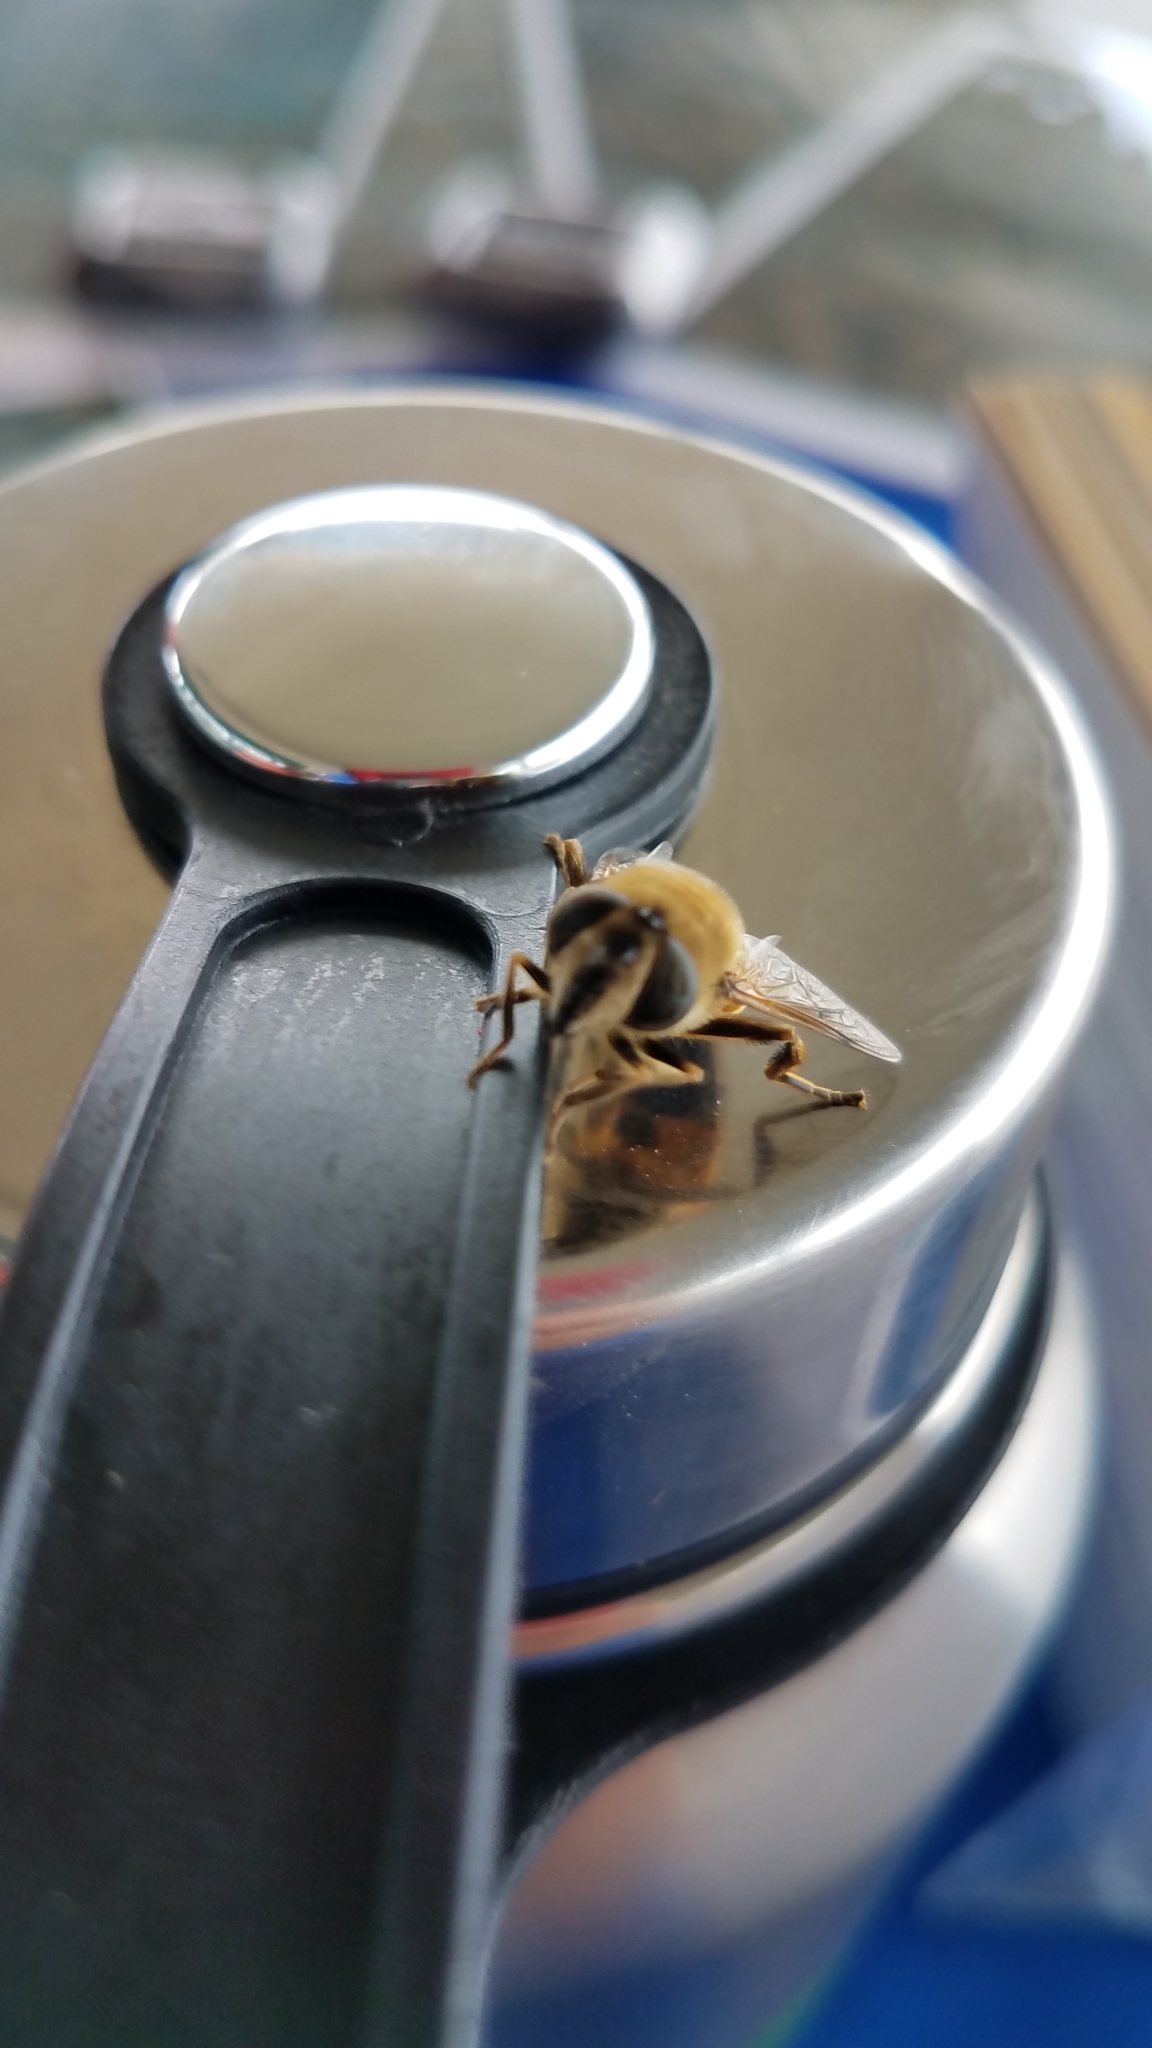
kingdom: Animalia
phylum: Arthropoda
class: Insecta
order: Diptera
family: Syrphidae
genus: Eristalis
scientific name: Eristalis tenax
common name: Drone fly
